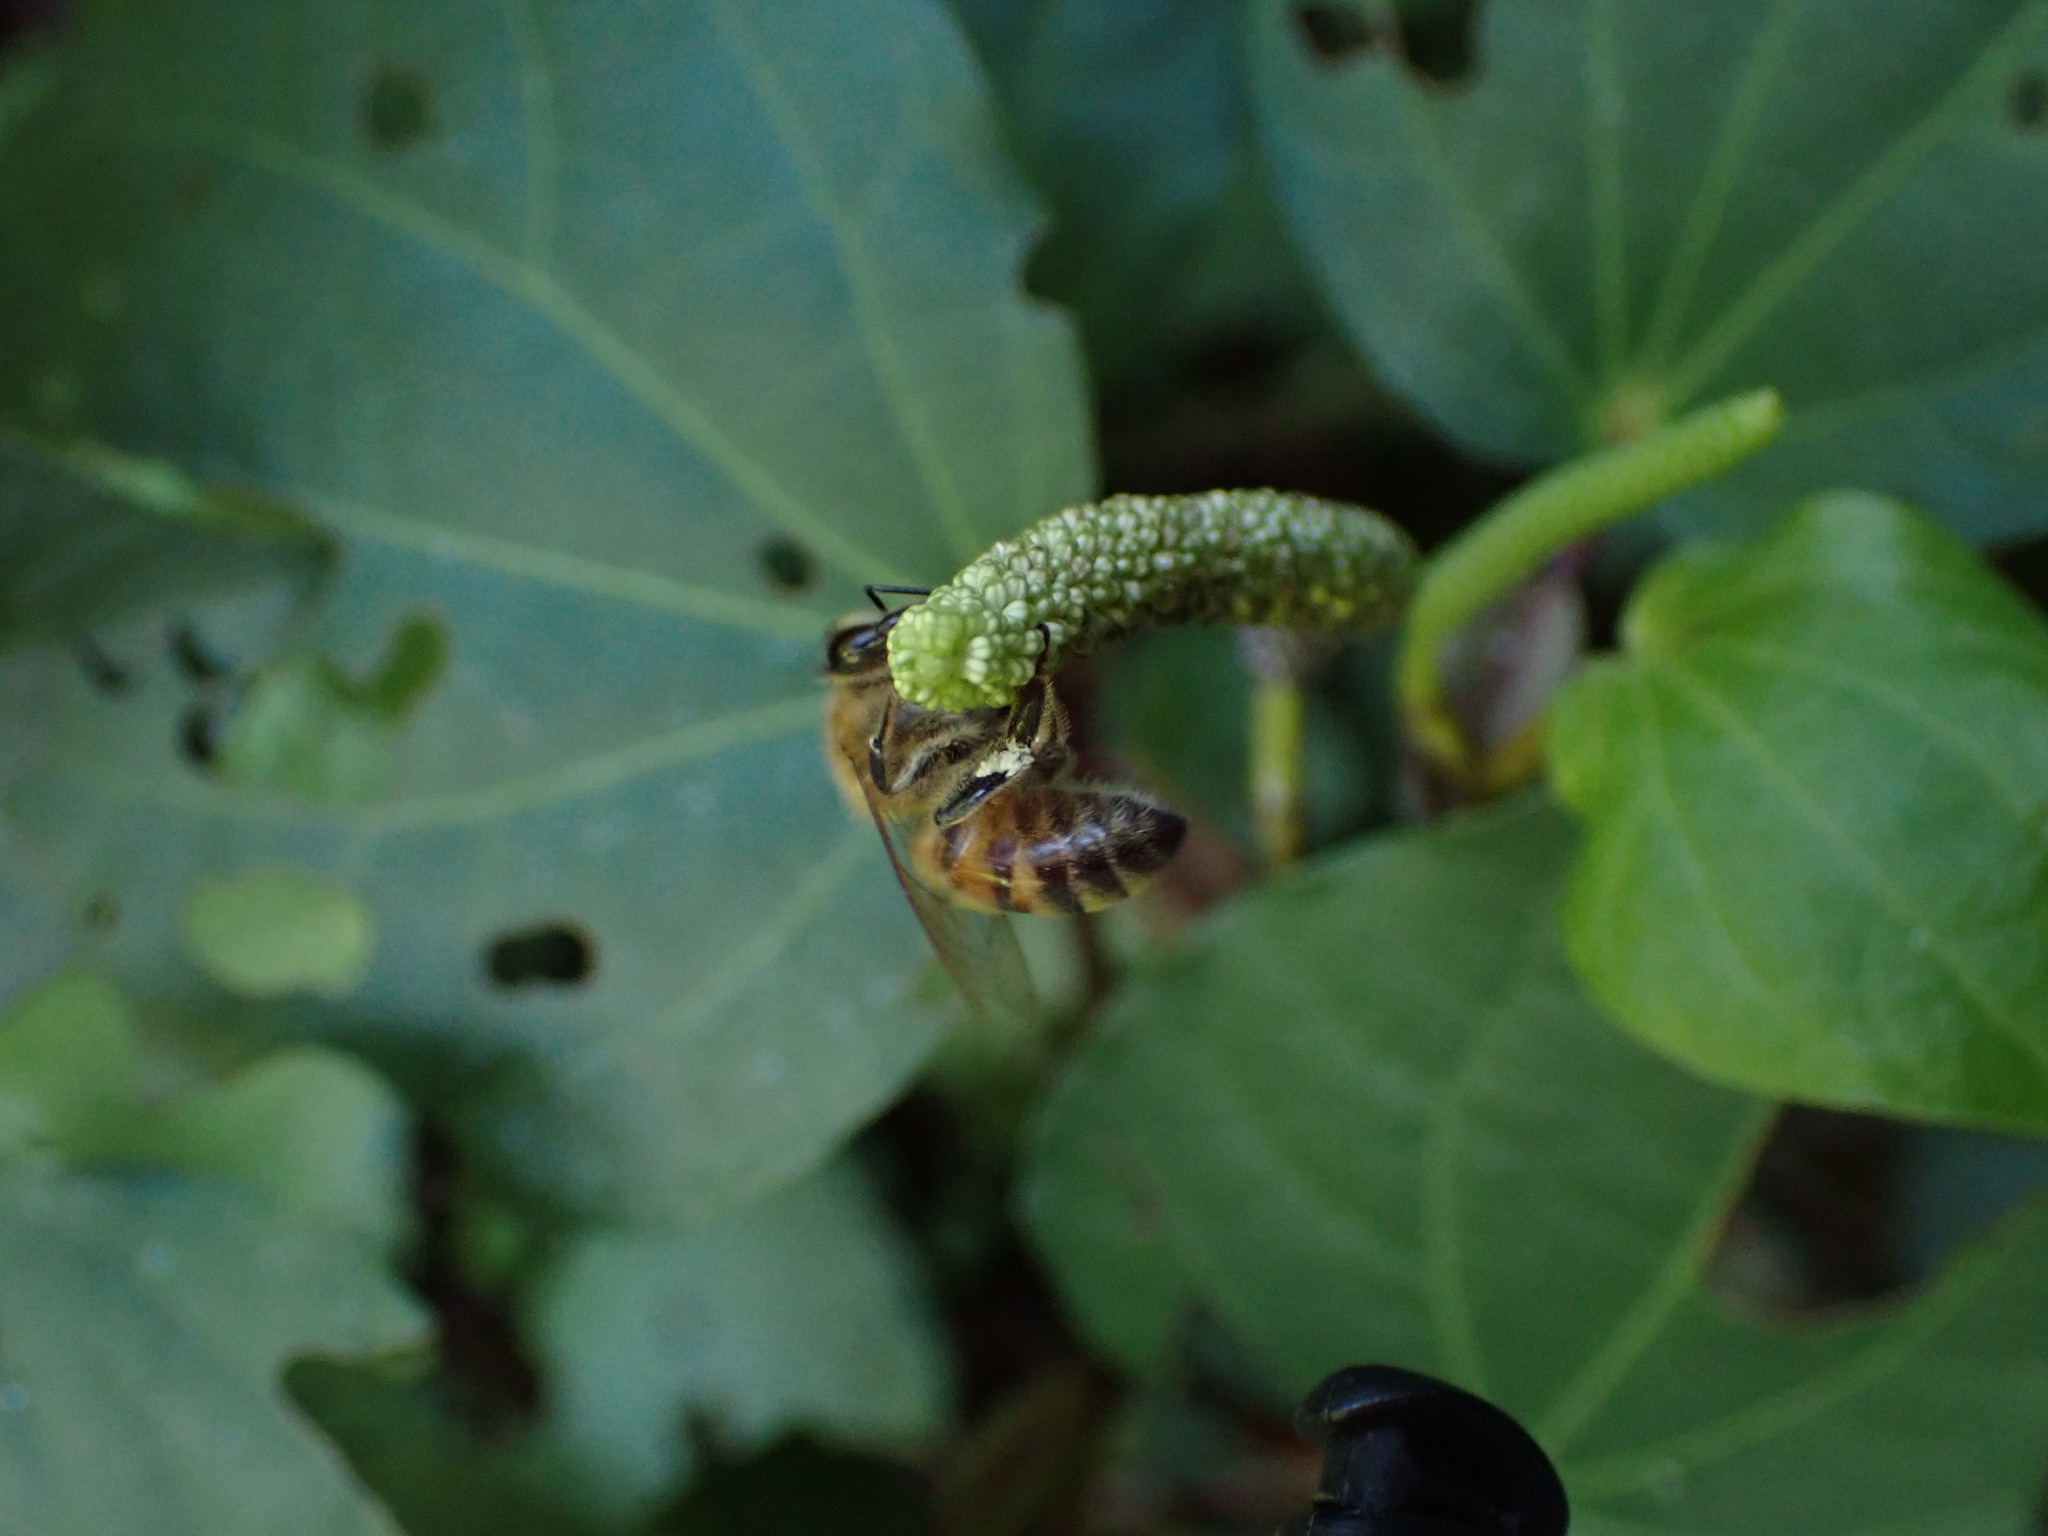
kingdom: Animalia
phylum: Arthropoda
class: Insecta
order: Hymenoptera
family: Apidae
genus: Apis
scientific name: Apis mellifera
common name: Honey bee
